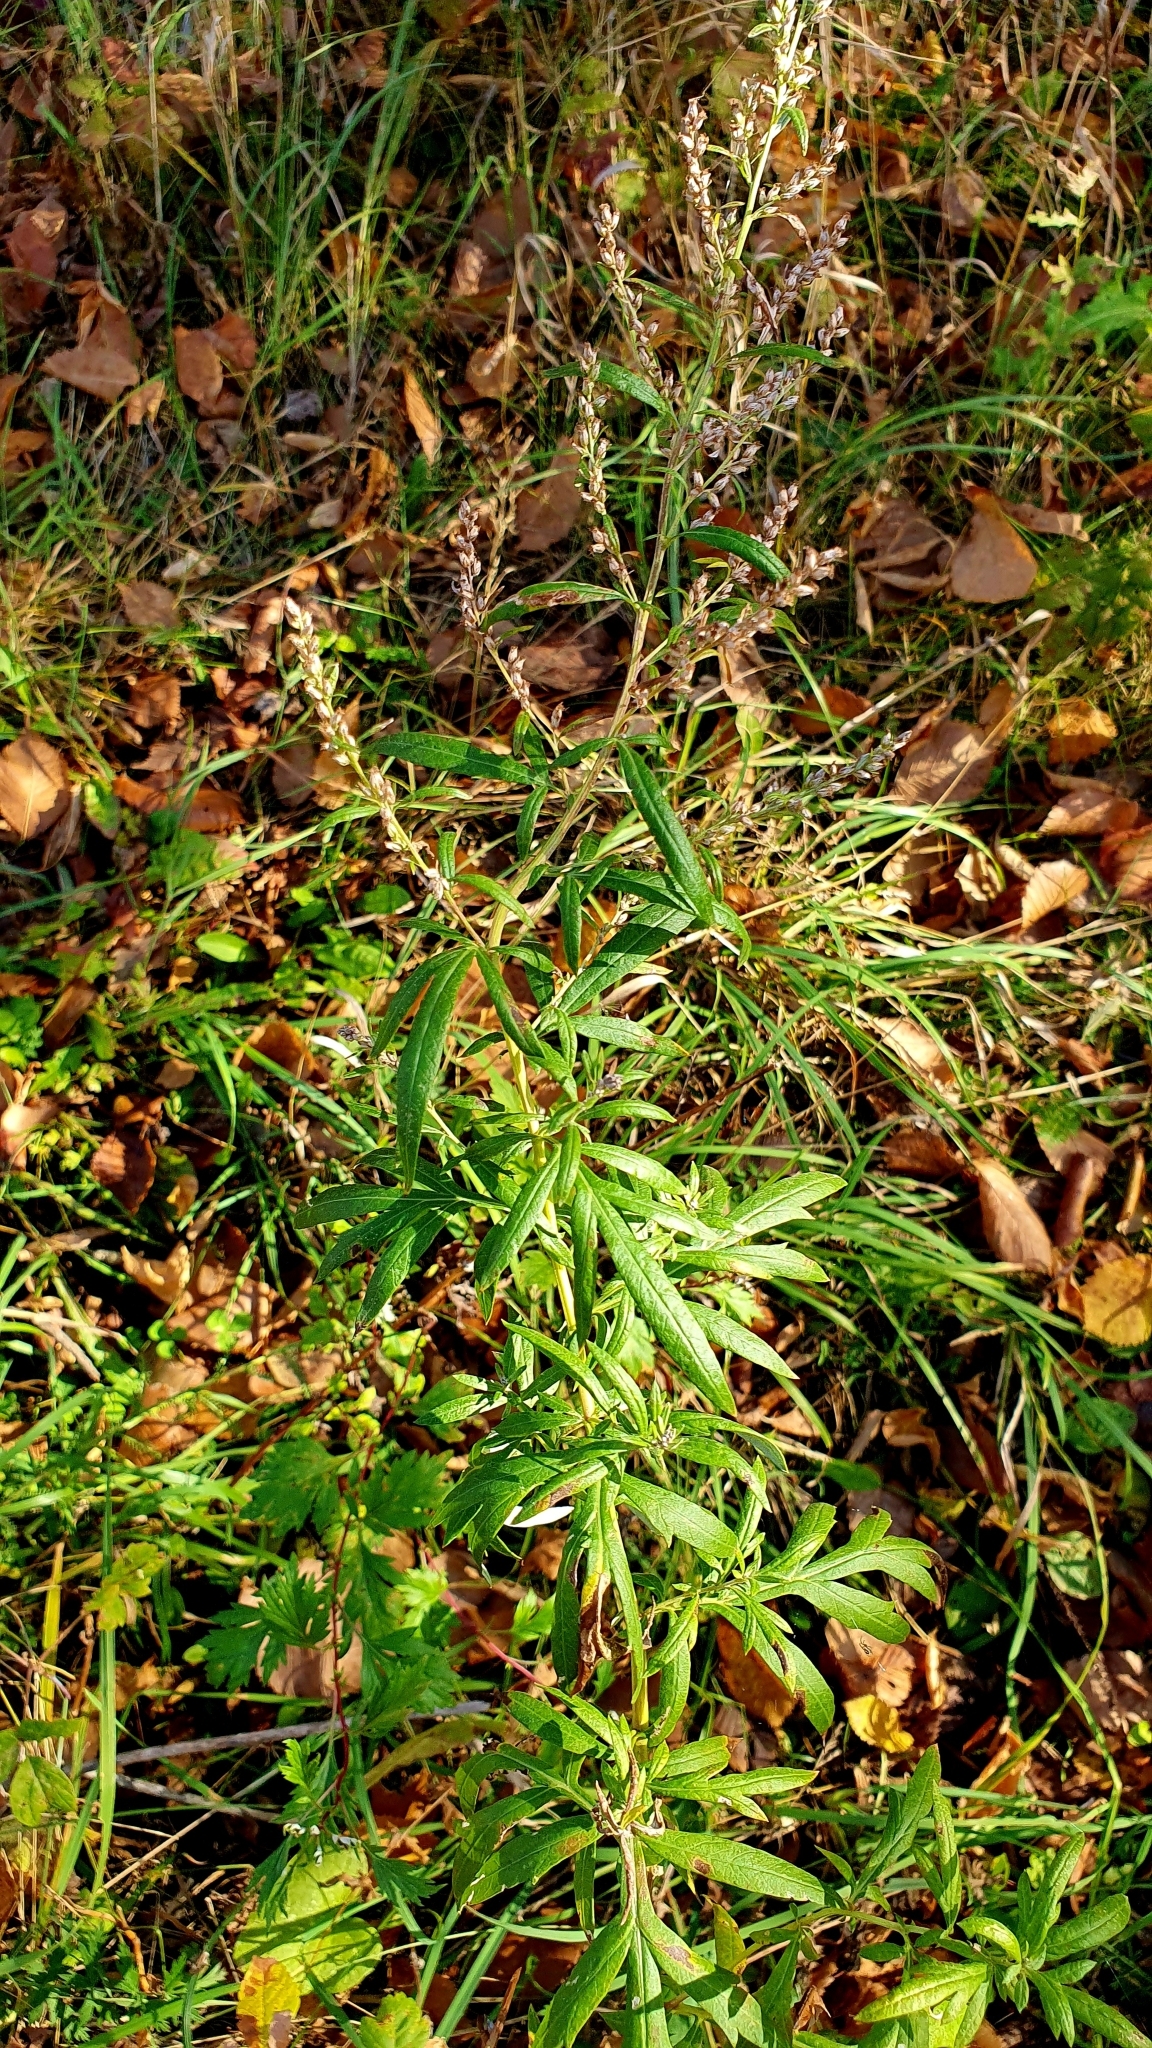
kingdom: Plantae
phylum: Tracheophyta
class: Magnoliopsida
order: Asterales
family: Asteraceae
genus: Artemisia
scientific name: Artemisia vulgaris
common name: Mugwort
